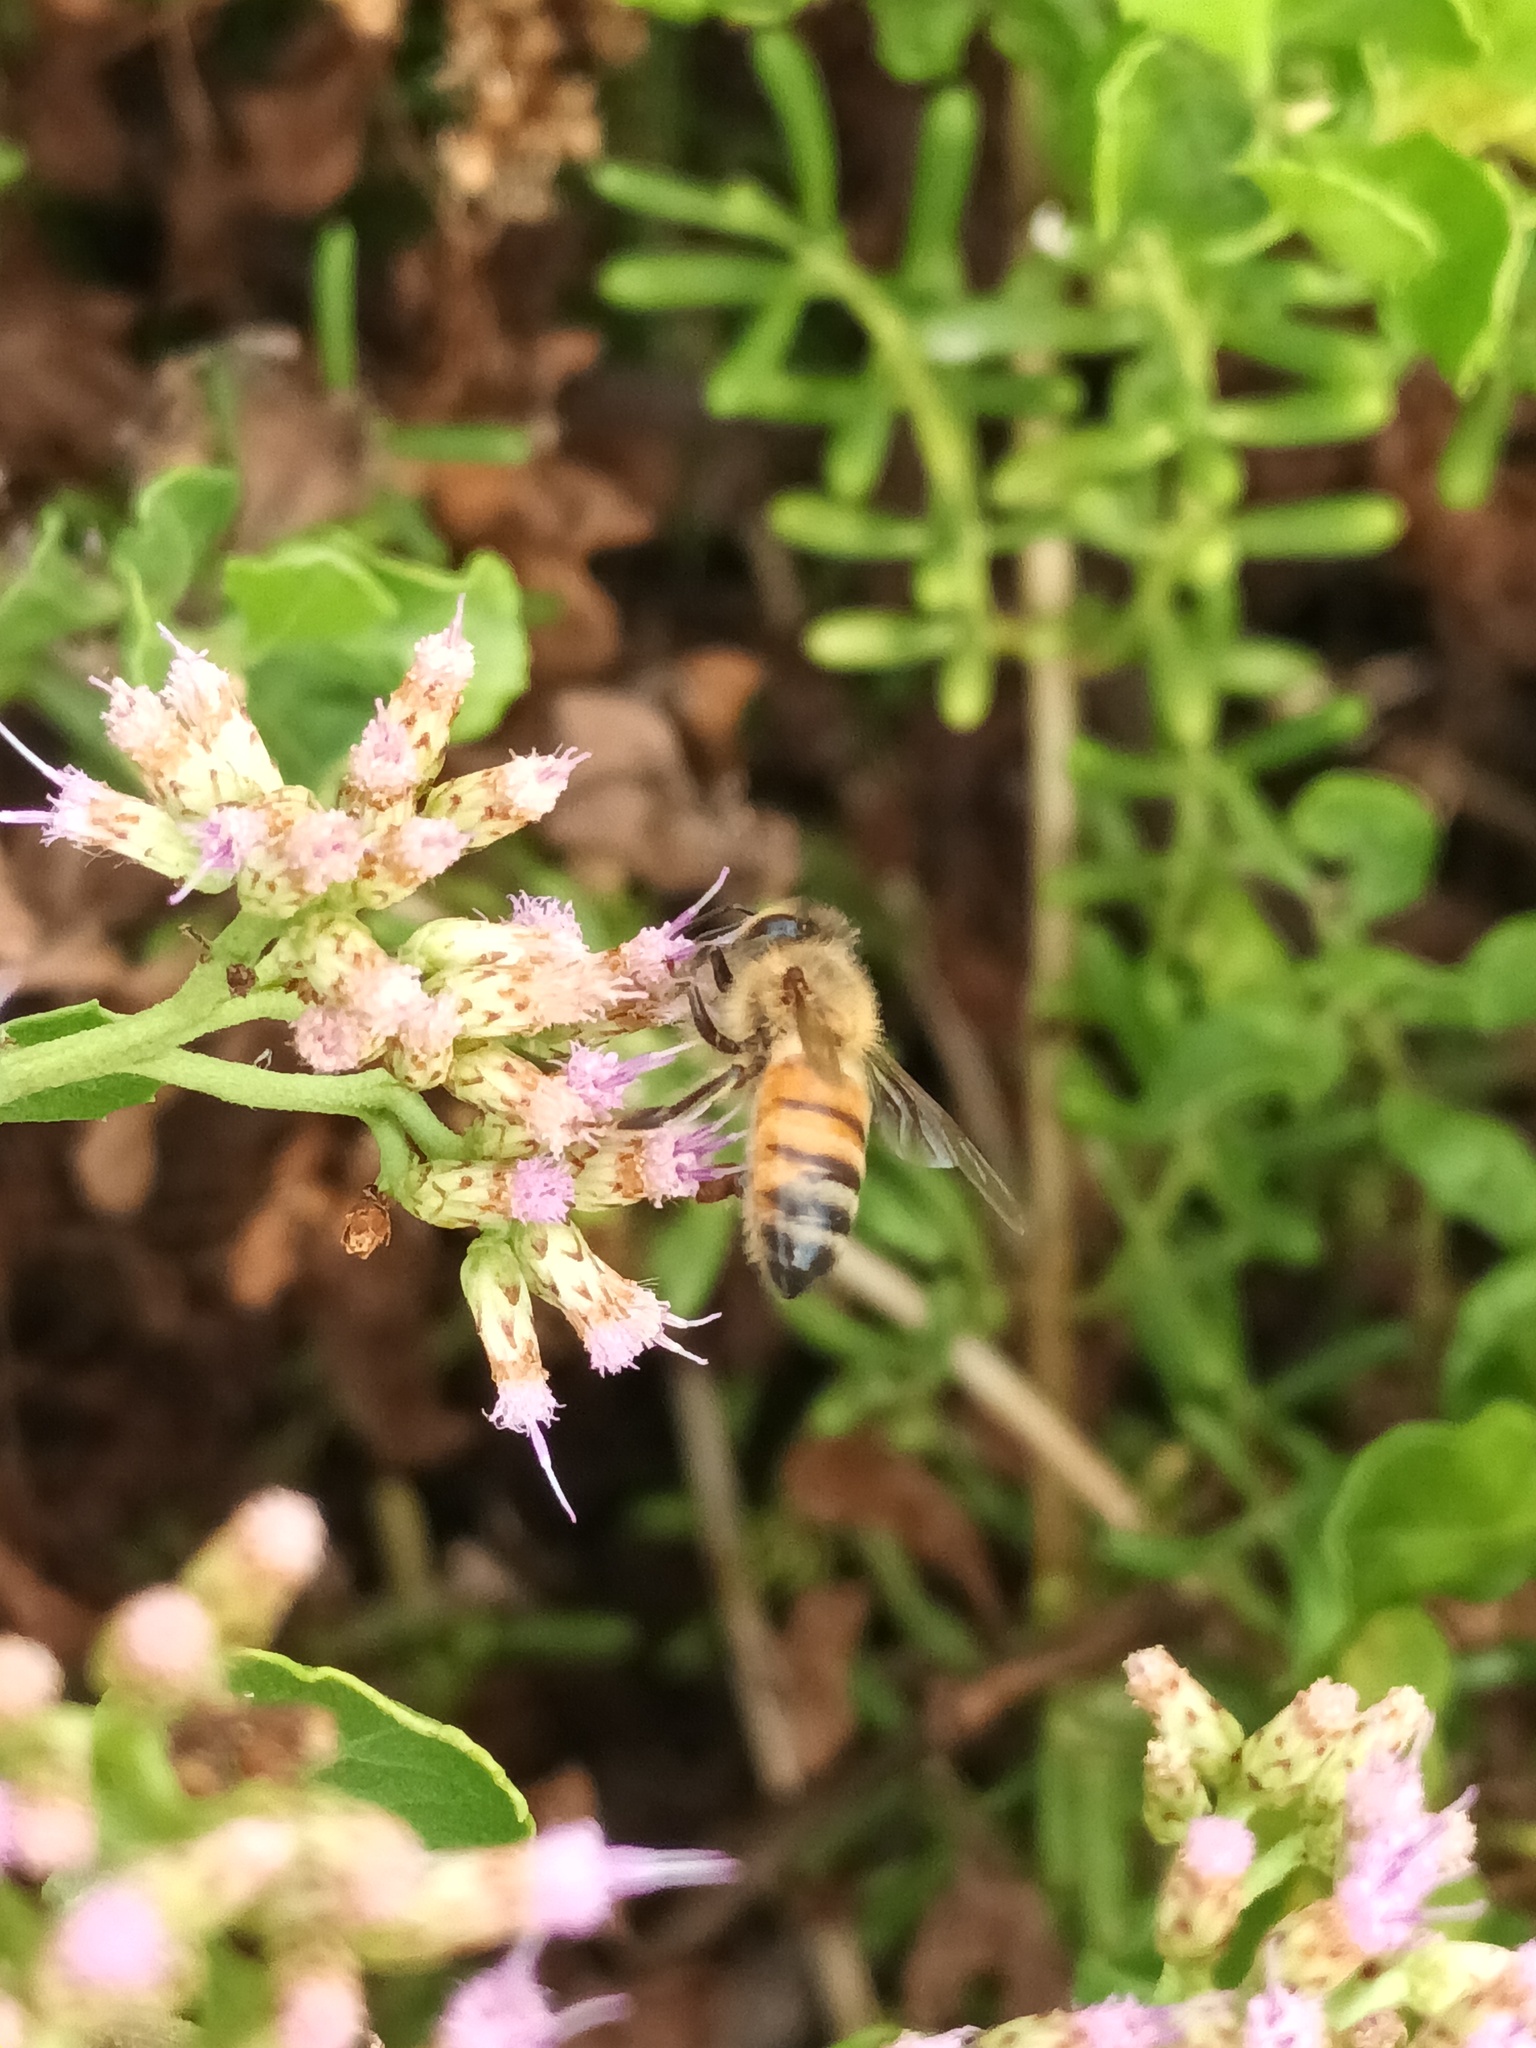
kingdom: Animalia
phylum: Arthropoda
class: Insecta
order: Hymenoptera
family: Apidae
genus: Apis
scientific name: Apis mellifera
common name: Honey bee
